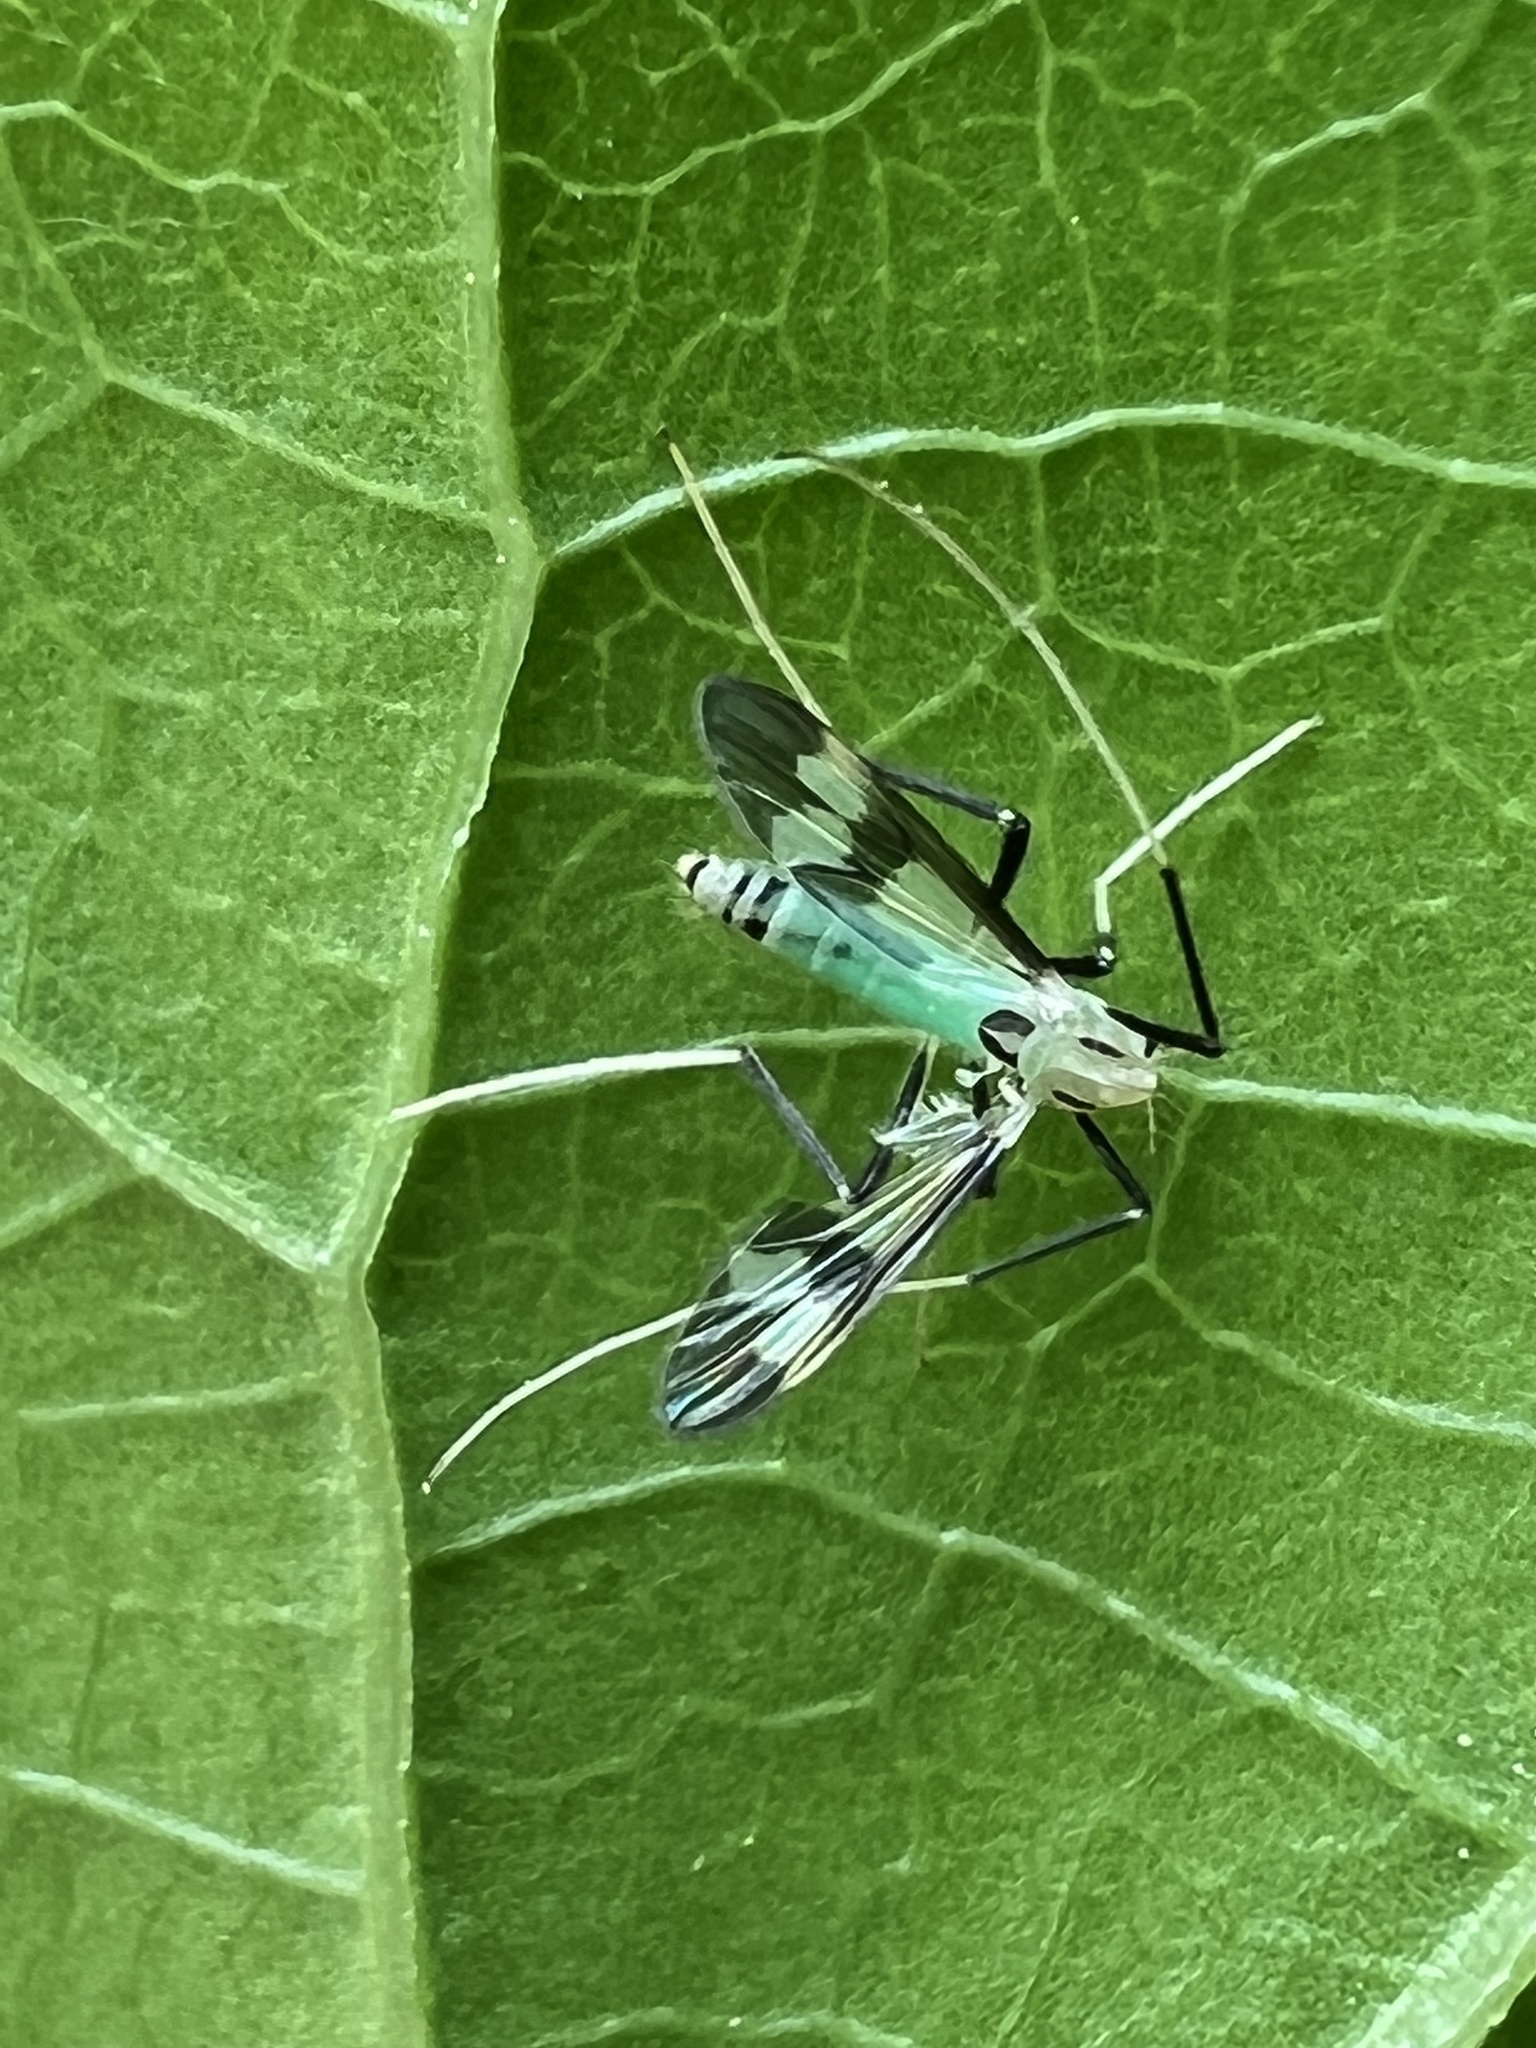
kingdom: Animalia
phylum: Arthropoda
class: Insecta
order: Diptera
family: Chironomidae
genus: Stenochironomus
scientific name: Stenochironomus hilaris
